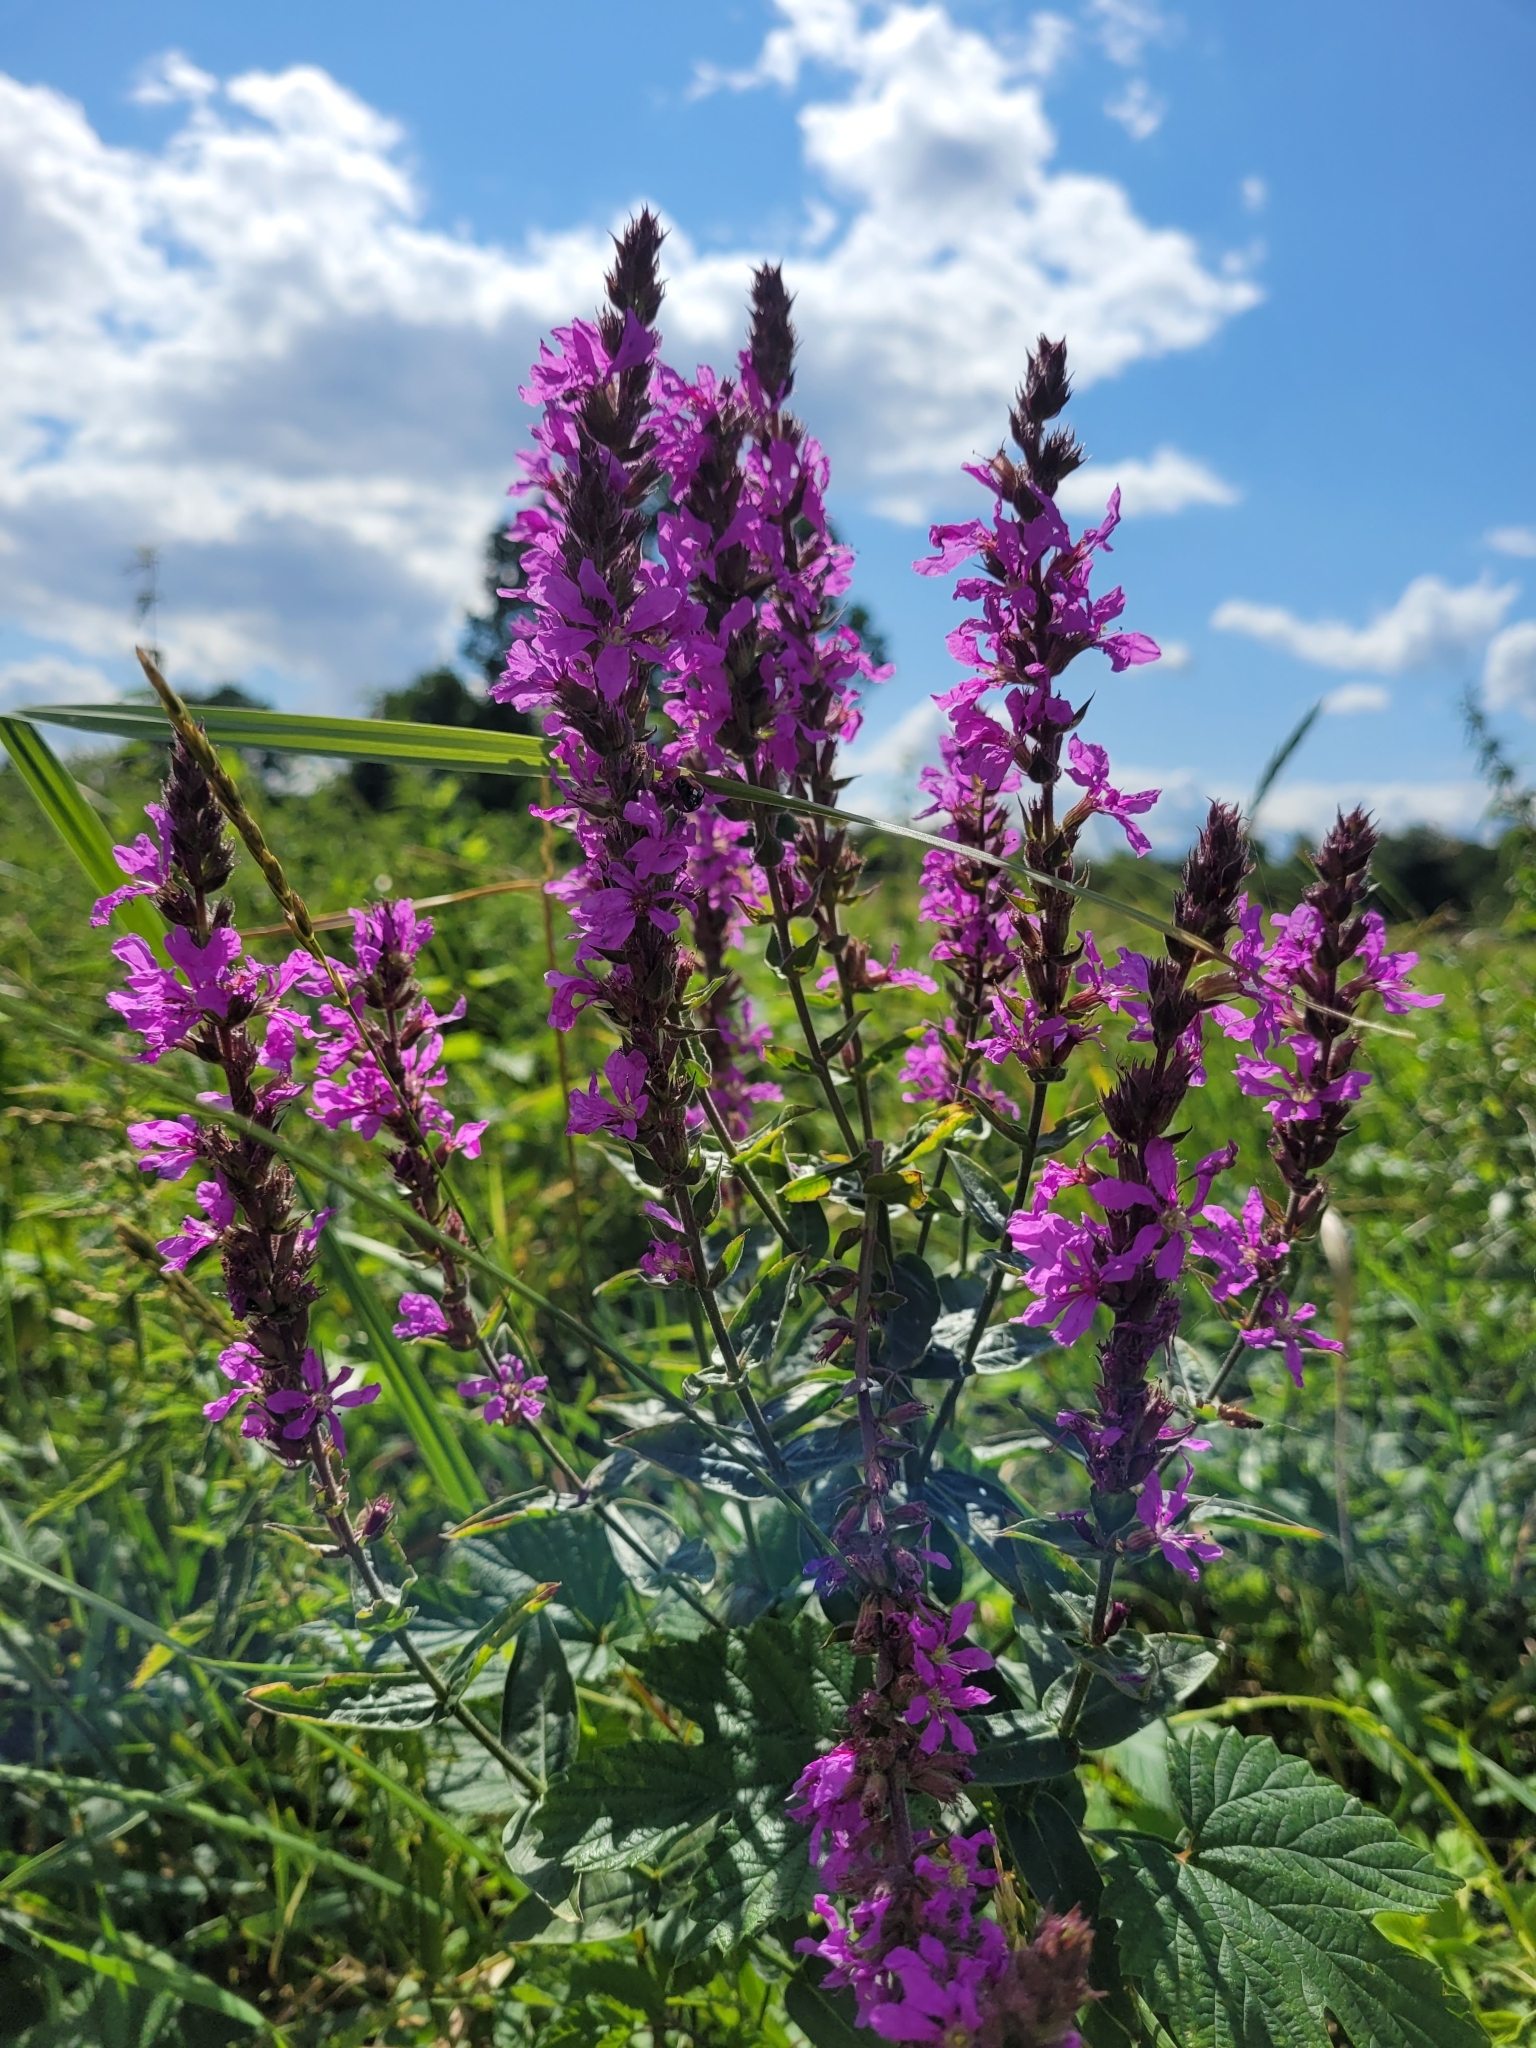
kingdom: Plantae
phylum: Tracheophyta
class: Magnoliopsida
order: Myrtales
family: Lythraceae
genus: Lythrum
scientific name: Lythrum salicaria
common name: Purple loosestrife
